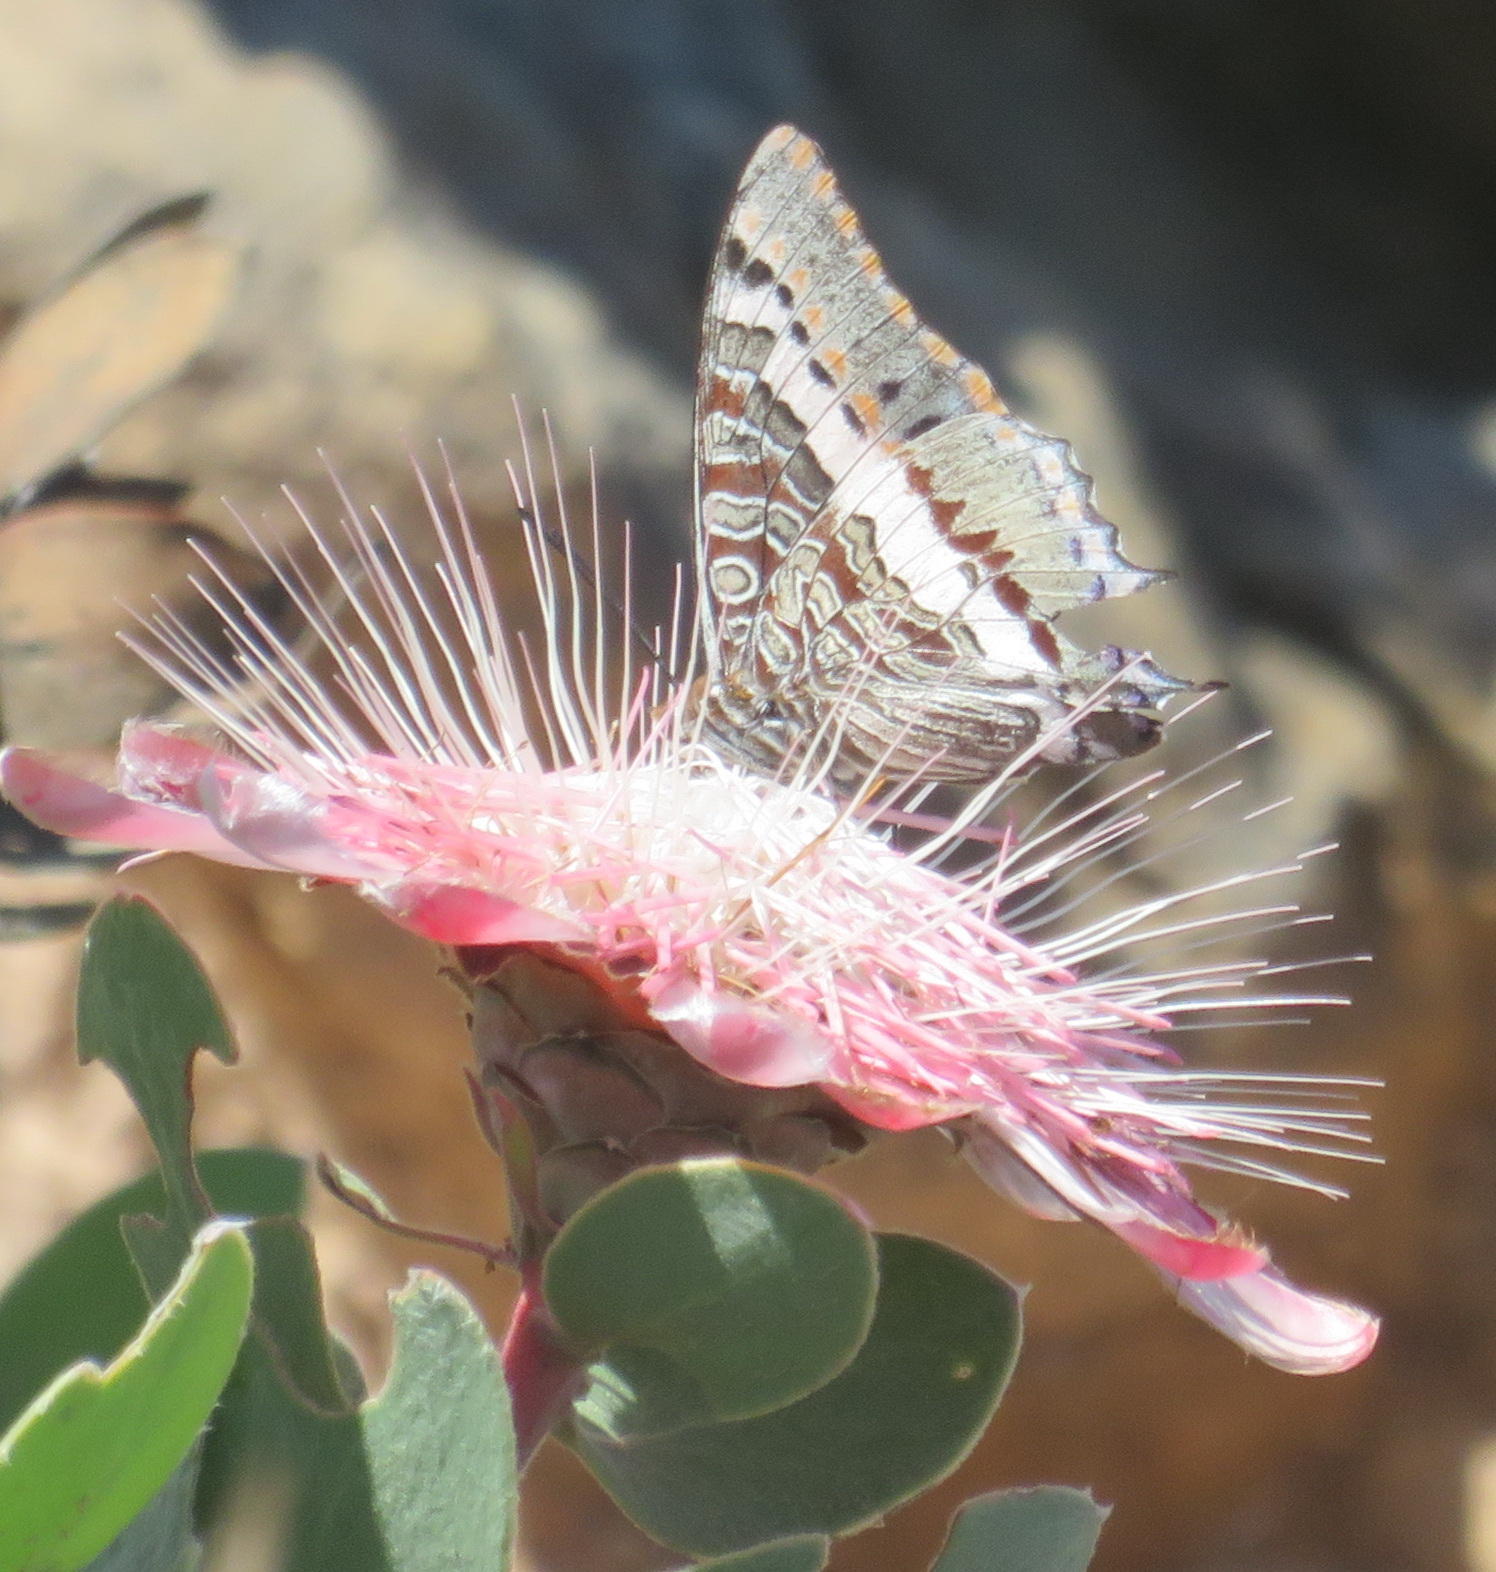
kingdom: Animalia
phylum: Arthropoda
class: Insecta
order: Lepidoptera
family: Nymphalidae
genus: Charaxes
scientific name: Charaxes pelias
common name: Protea charaxes
